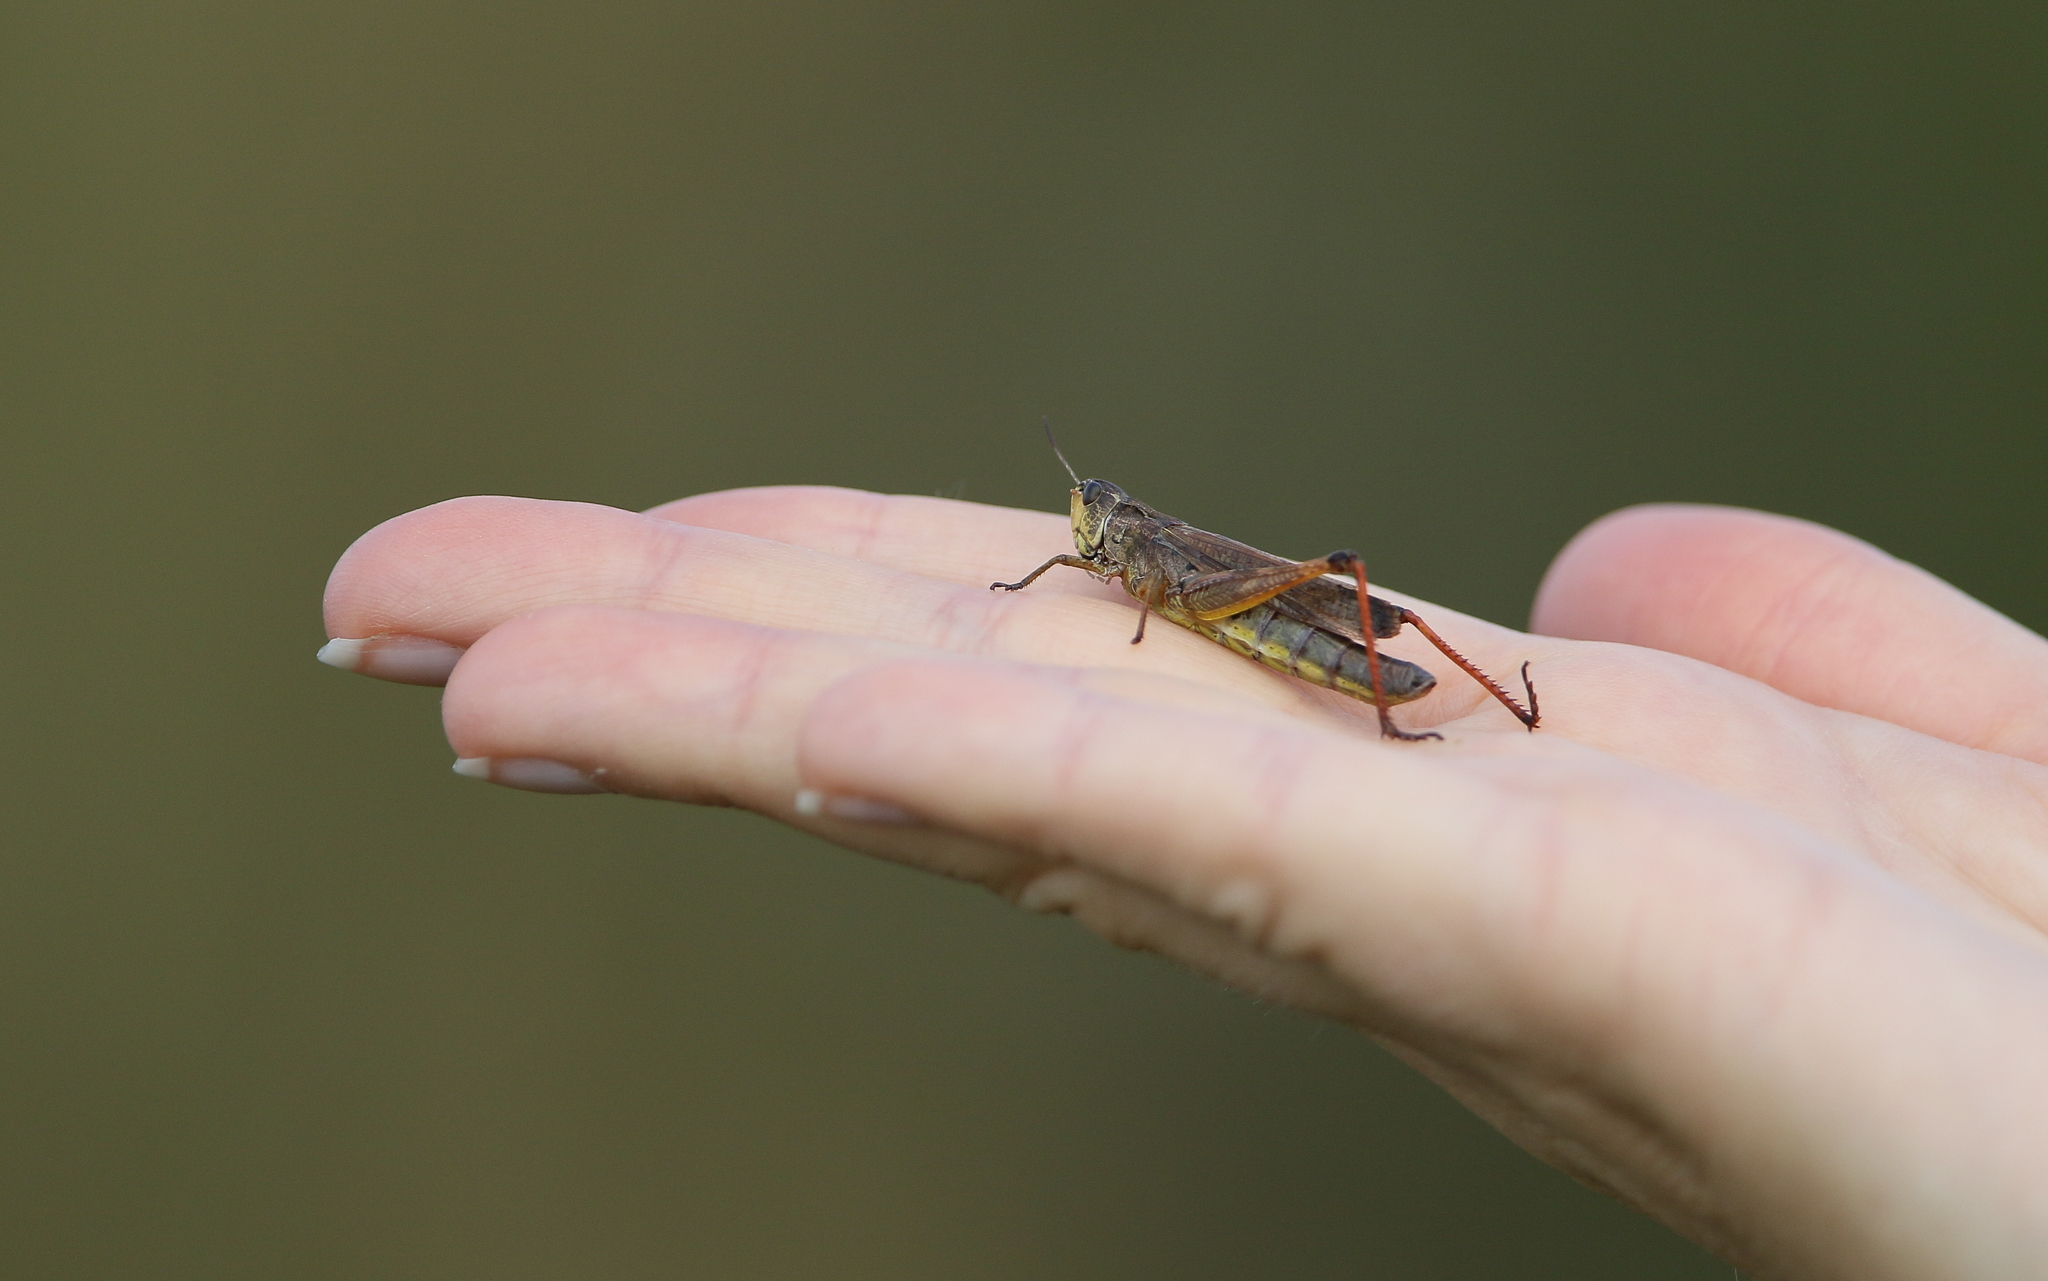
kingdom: Animalia
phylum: Arthropoda
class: Insecta
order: Orthoptera
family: Acrididae
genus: Stauroderus
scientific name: Stauroderus scalaris
